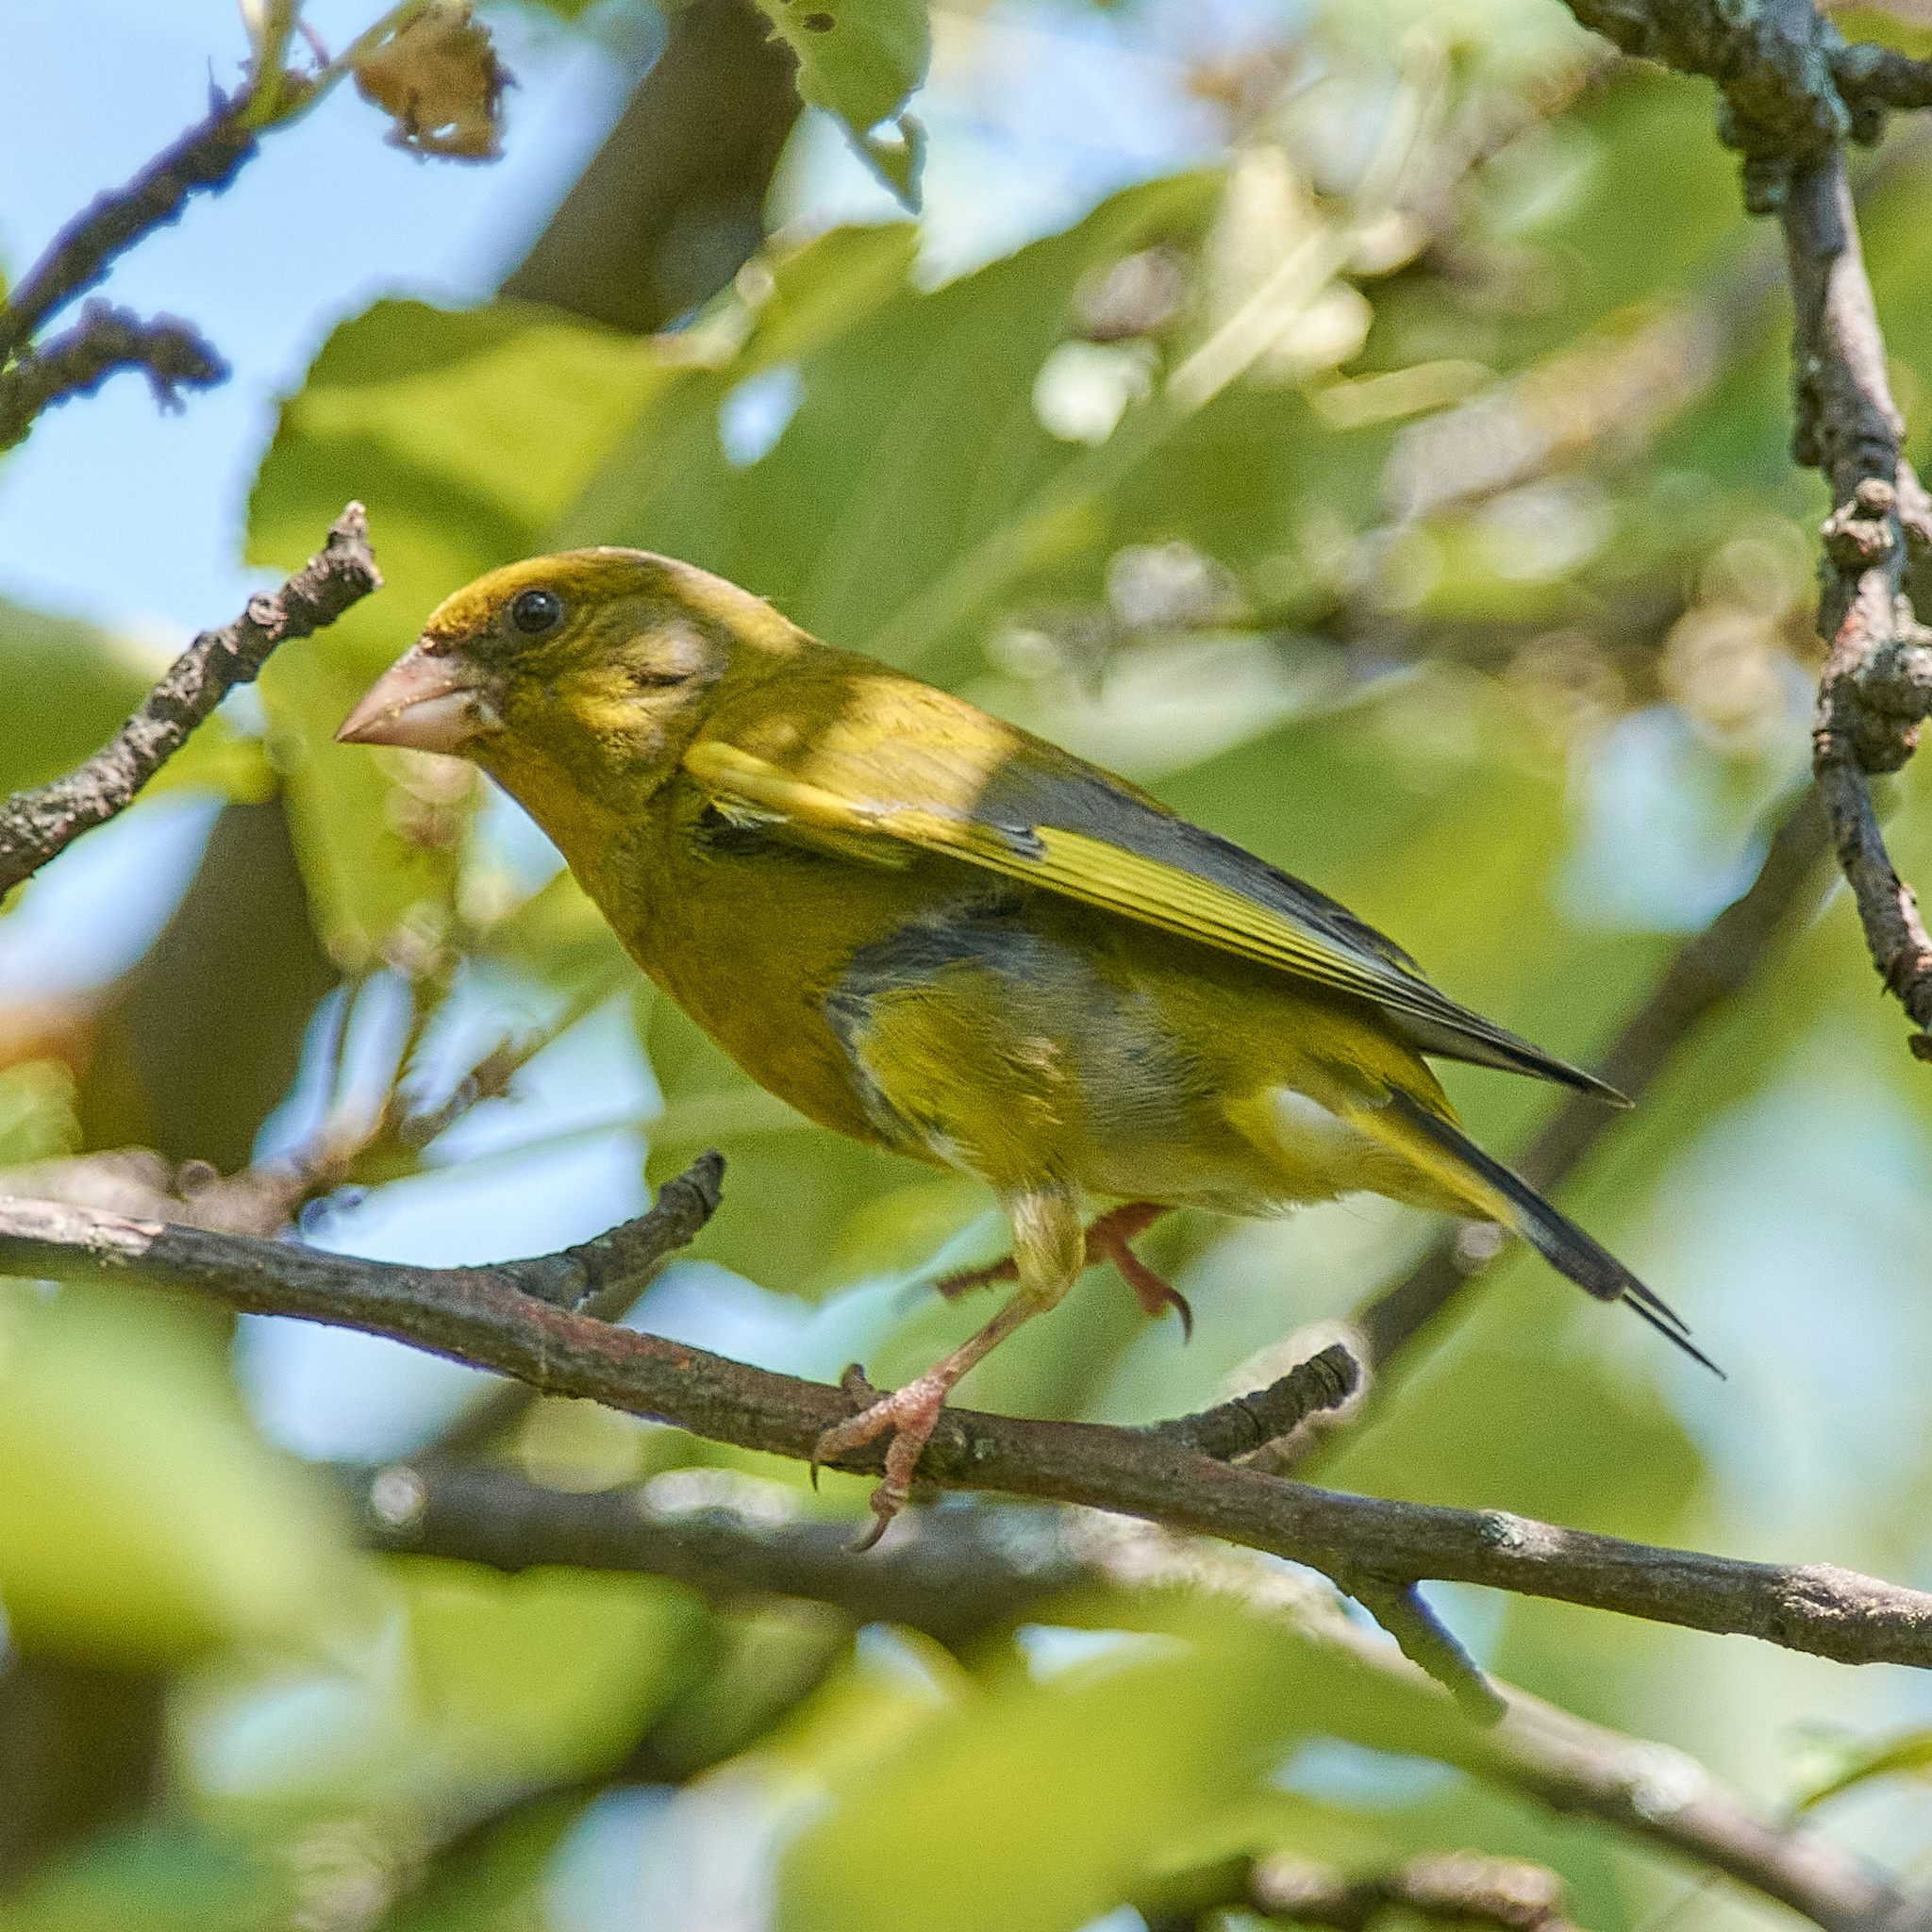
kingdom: Plantae
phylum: Tracheophyta
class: Liliopsida
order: Poales
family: Poaceae
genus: Chloris
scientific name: Chloris chloris
